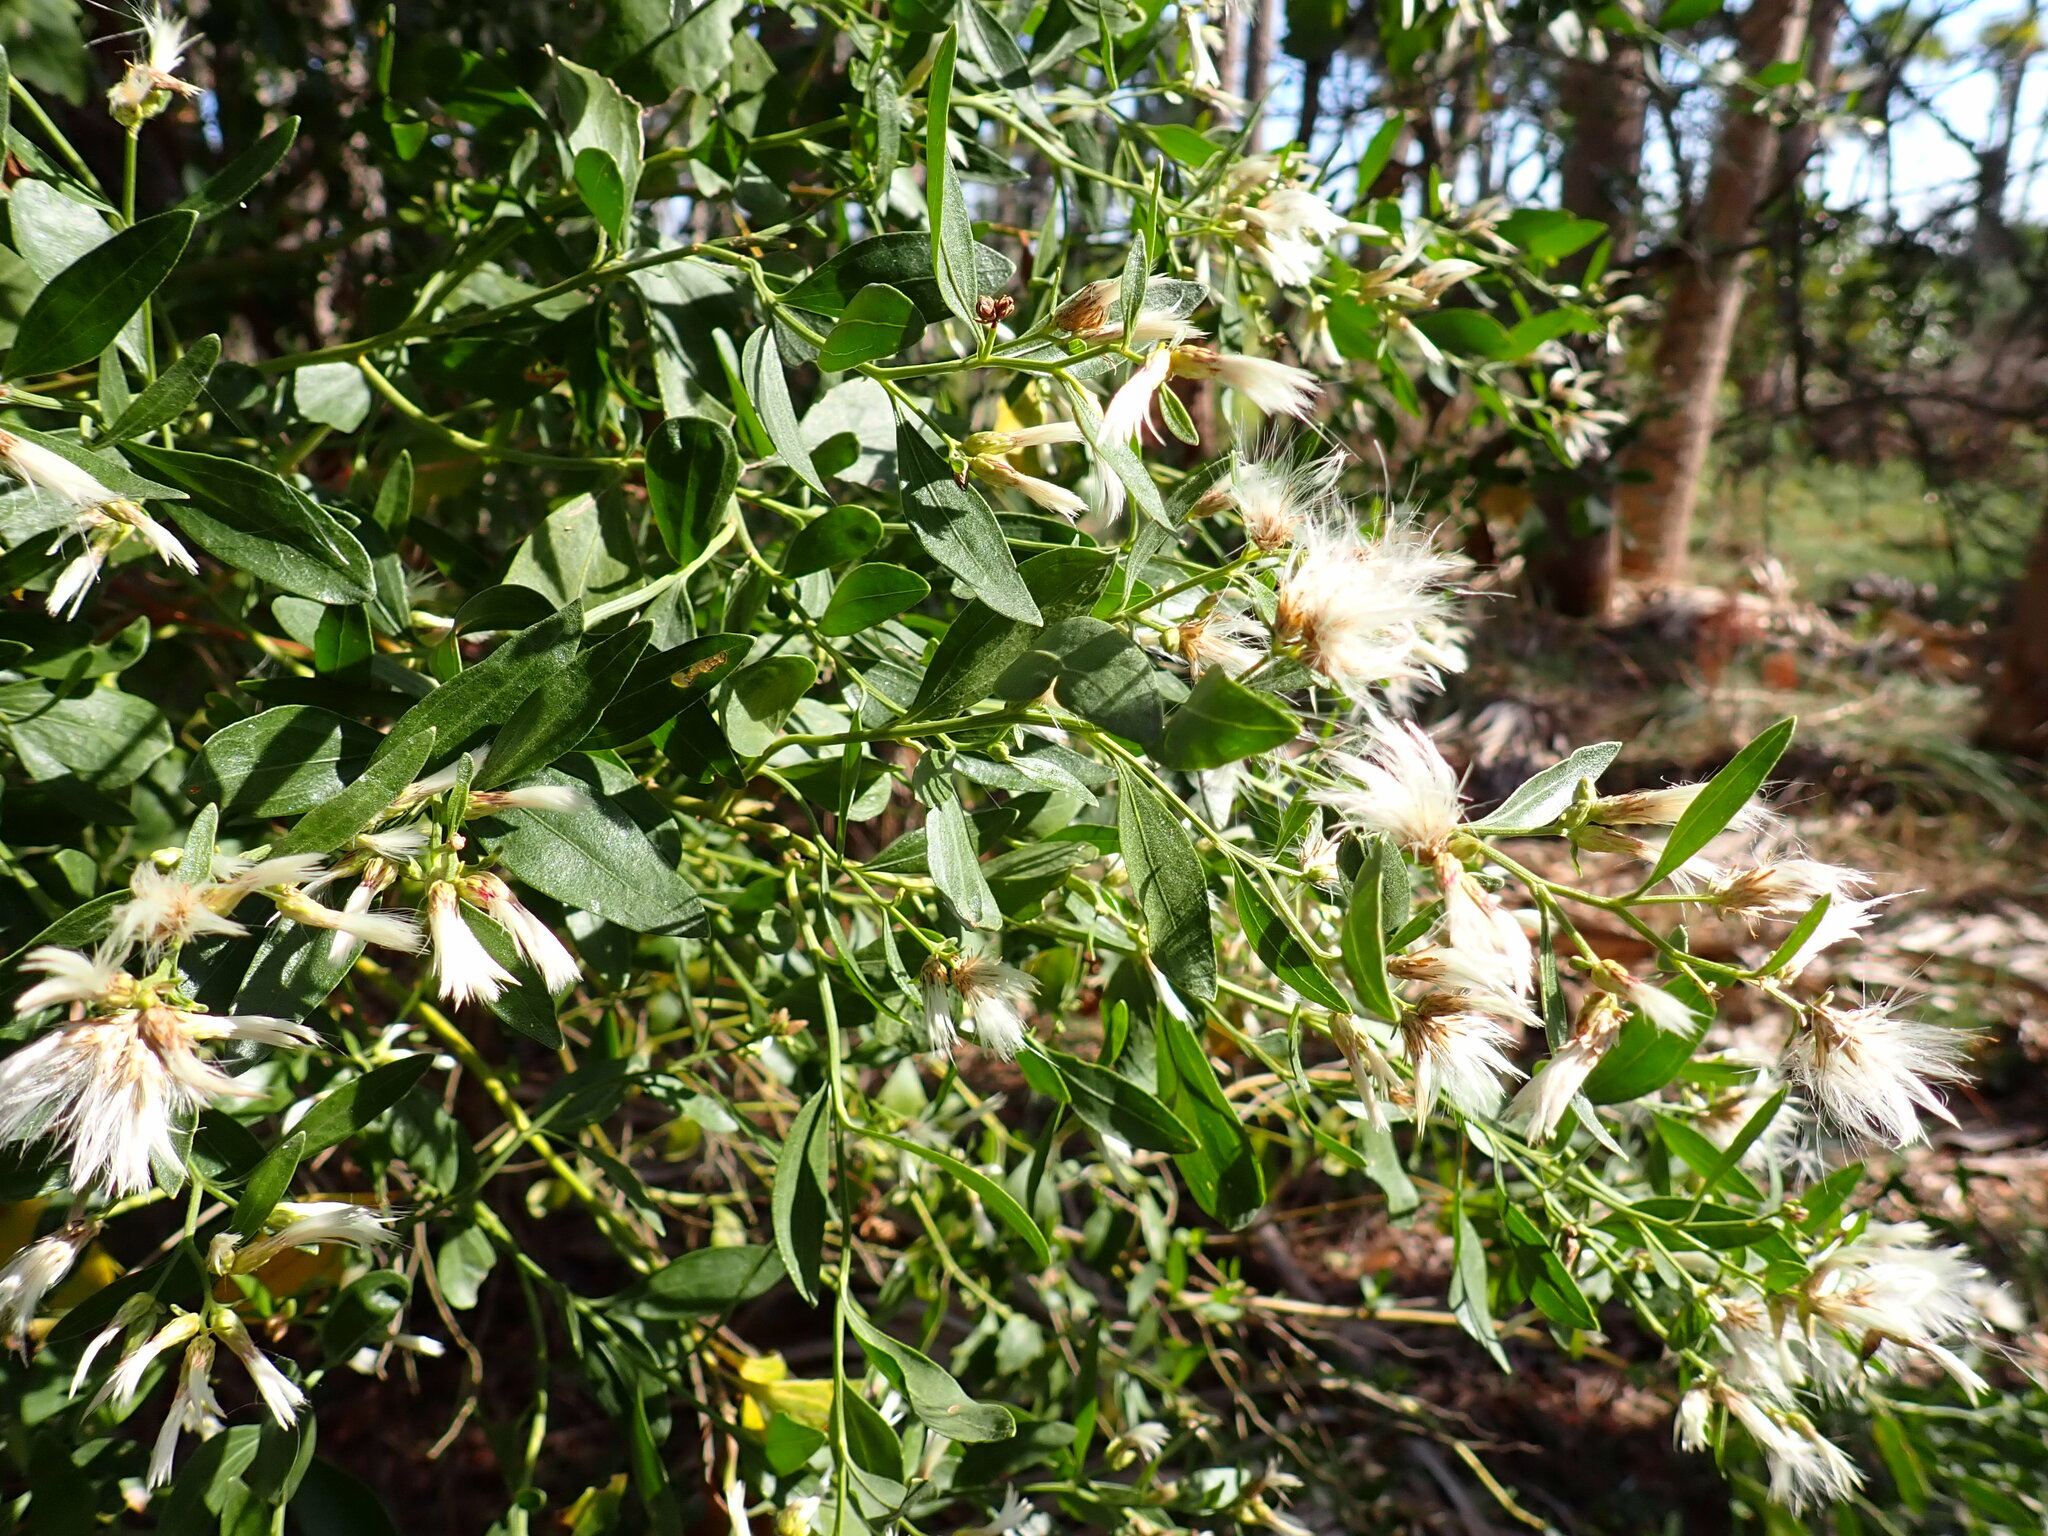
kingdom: Plantae
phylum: Tracheophyta
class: Magnoliopsida
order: Asterales
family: Asteraceae
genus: Baccharis
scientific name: Baccharis halimifolia
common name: Eastern baccharis
